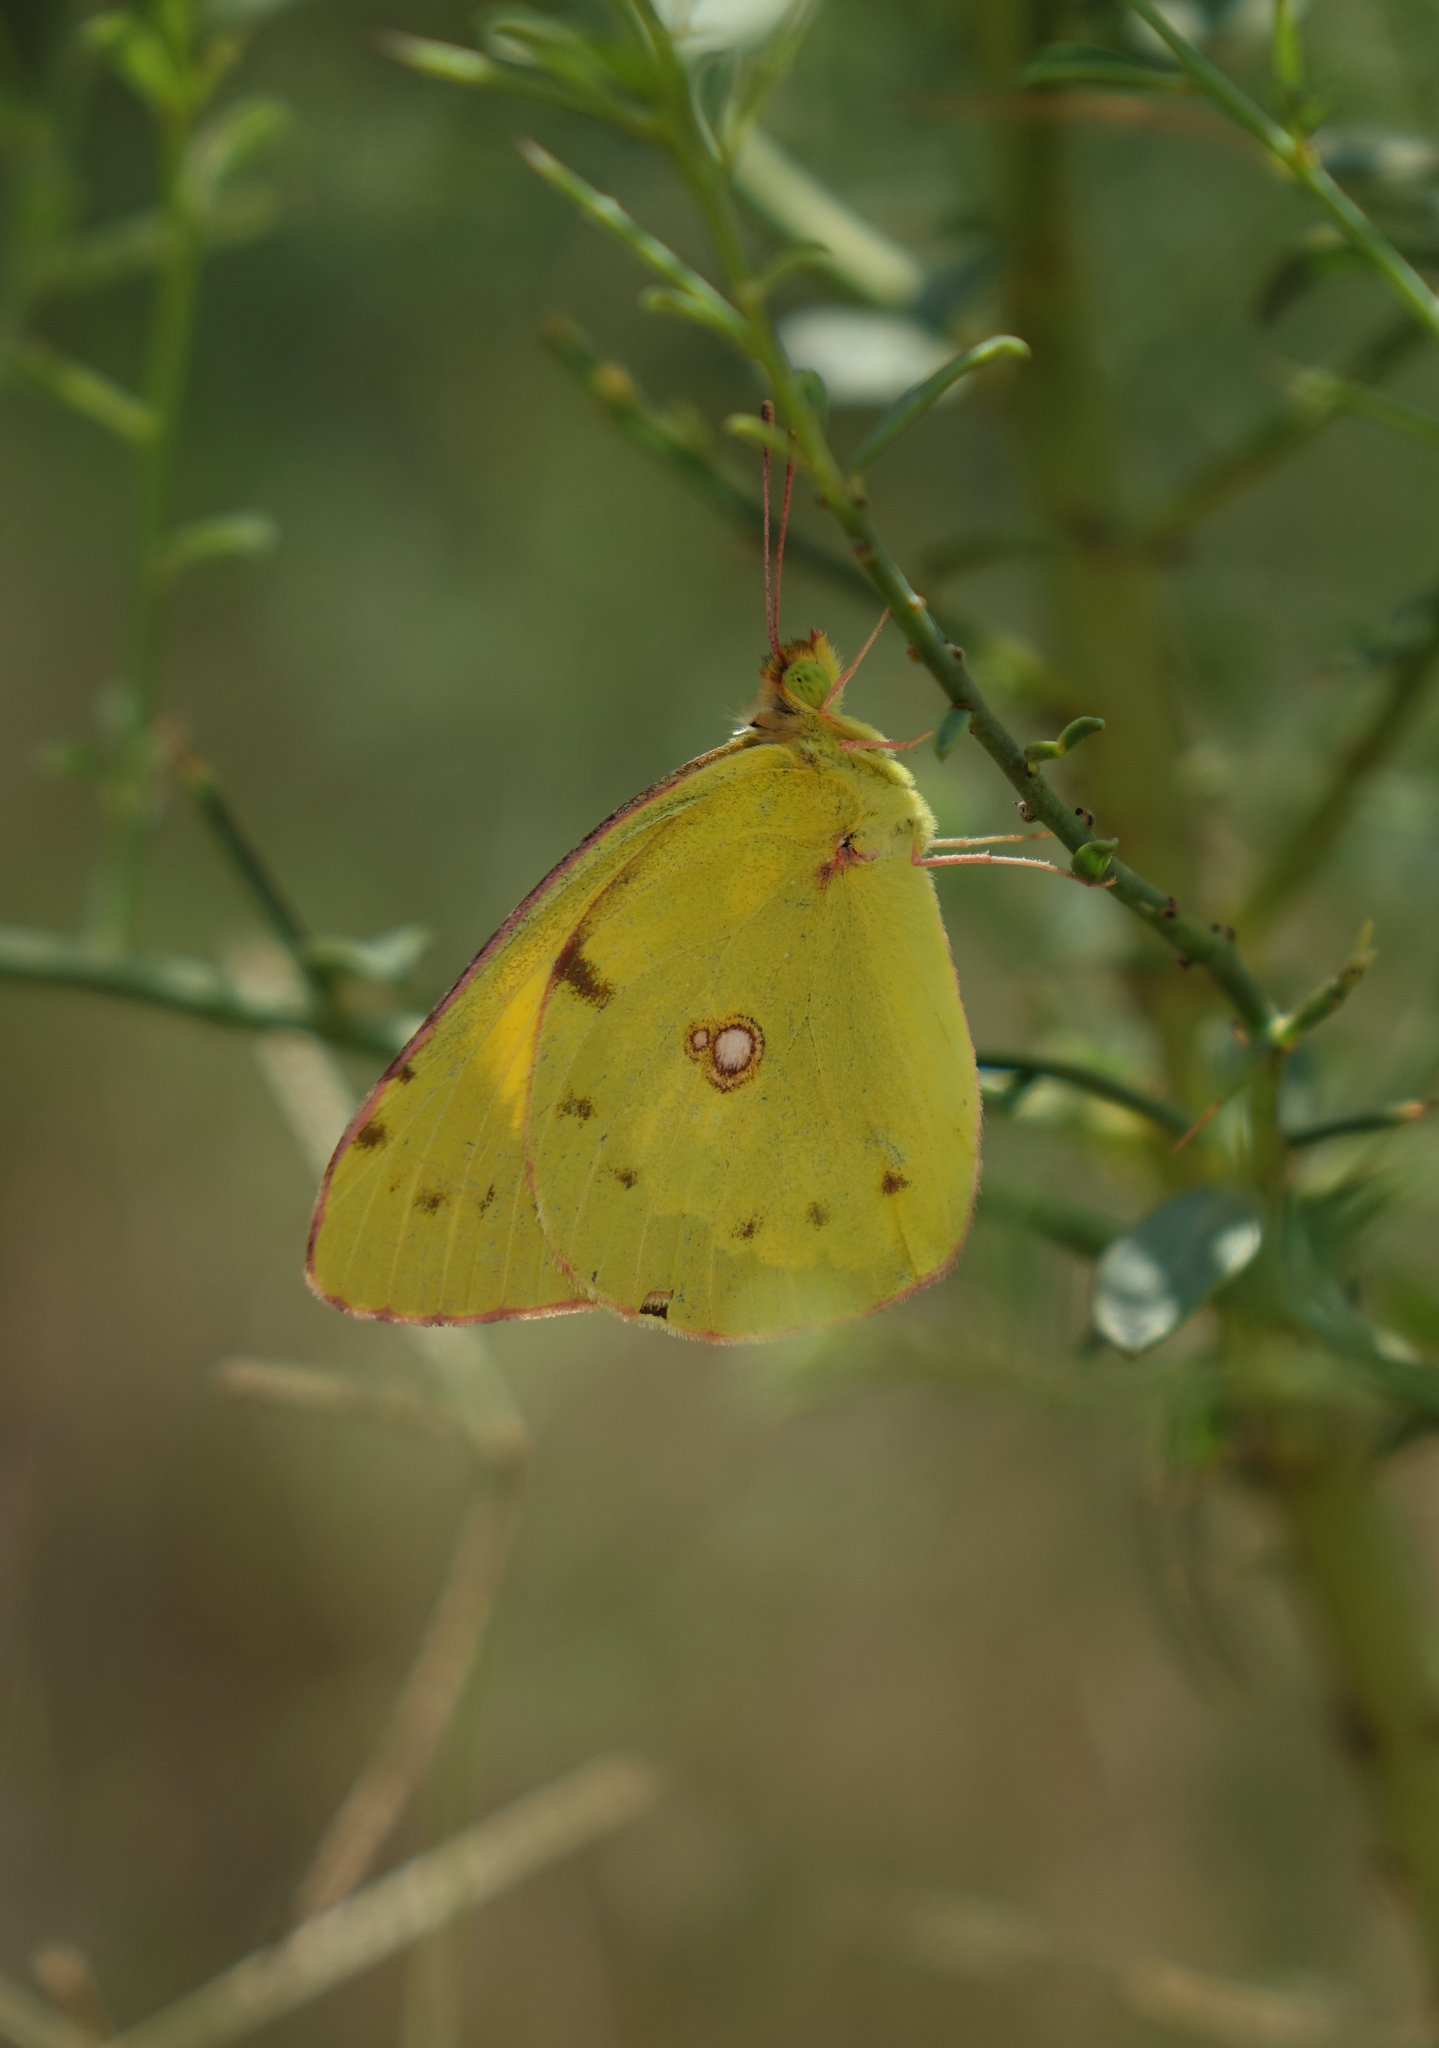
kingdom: Animalia
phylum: Arthropoda
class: Insecta
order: Lepidoptera
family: Pieridae
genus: Colias
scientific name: Colias erate
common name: Eastern pale clouded yellow
